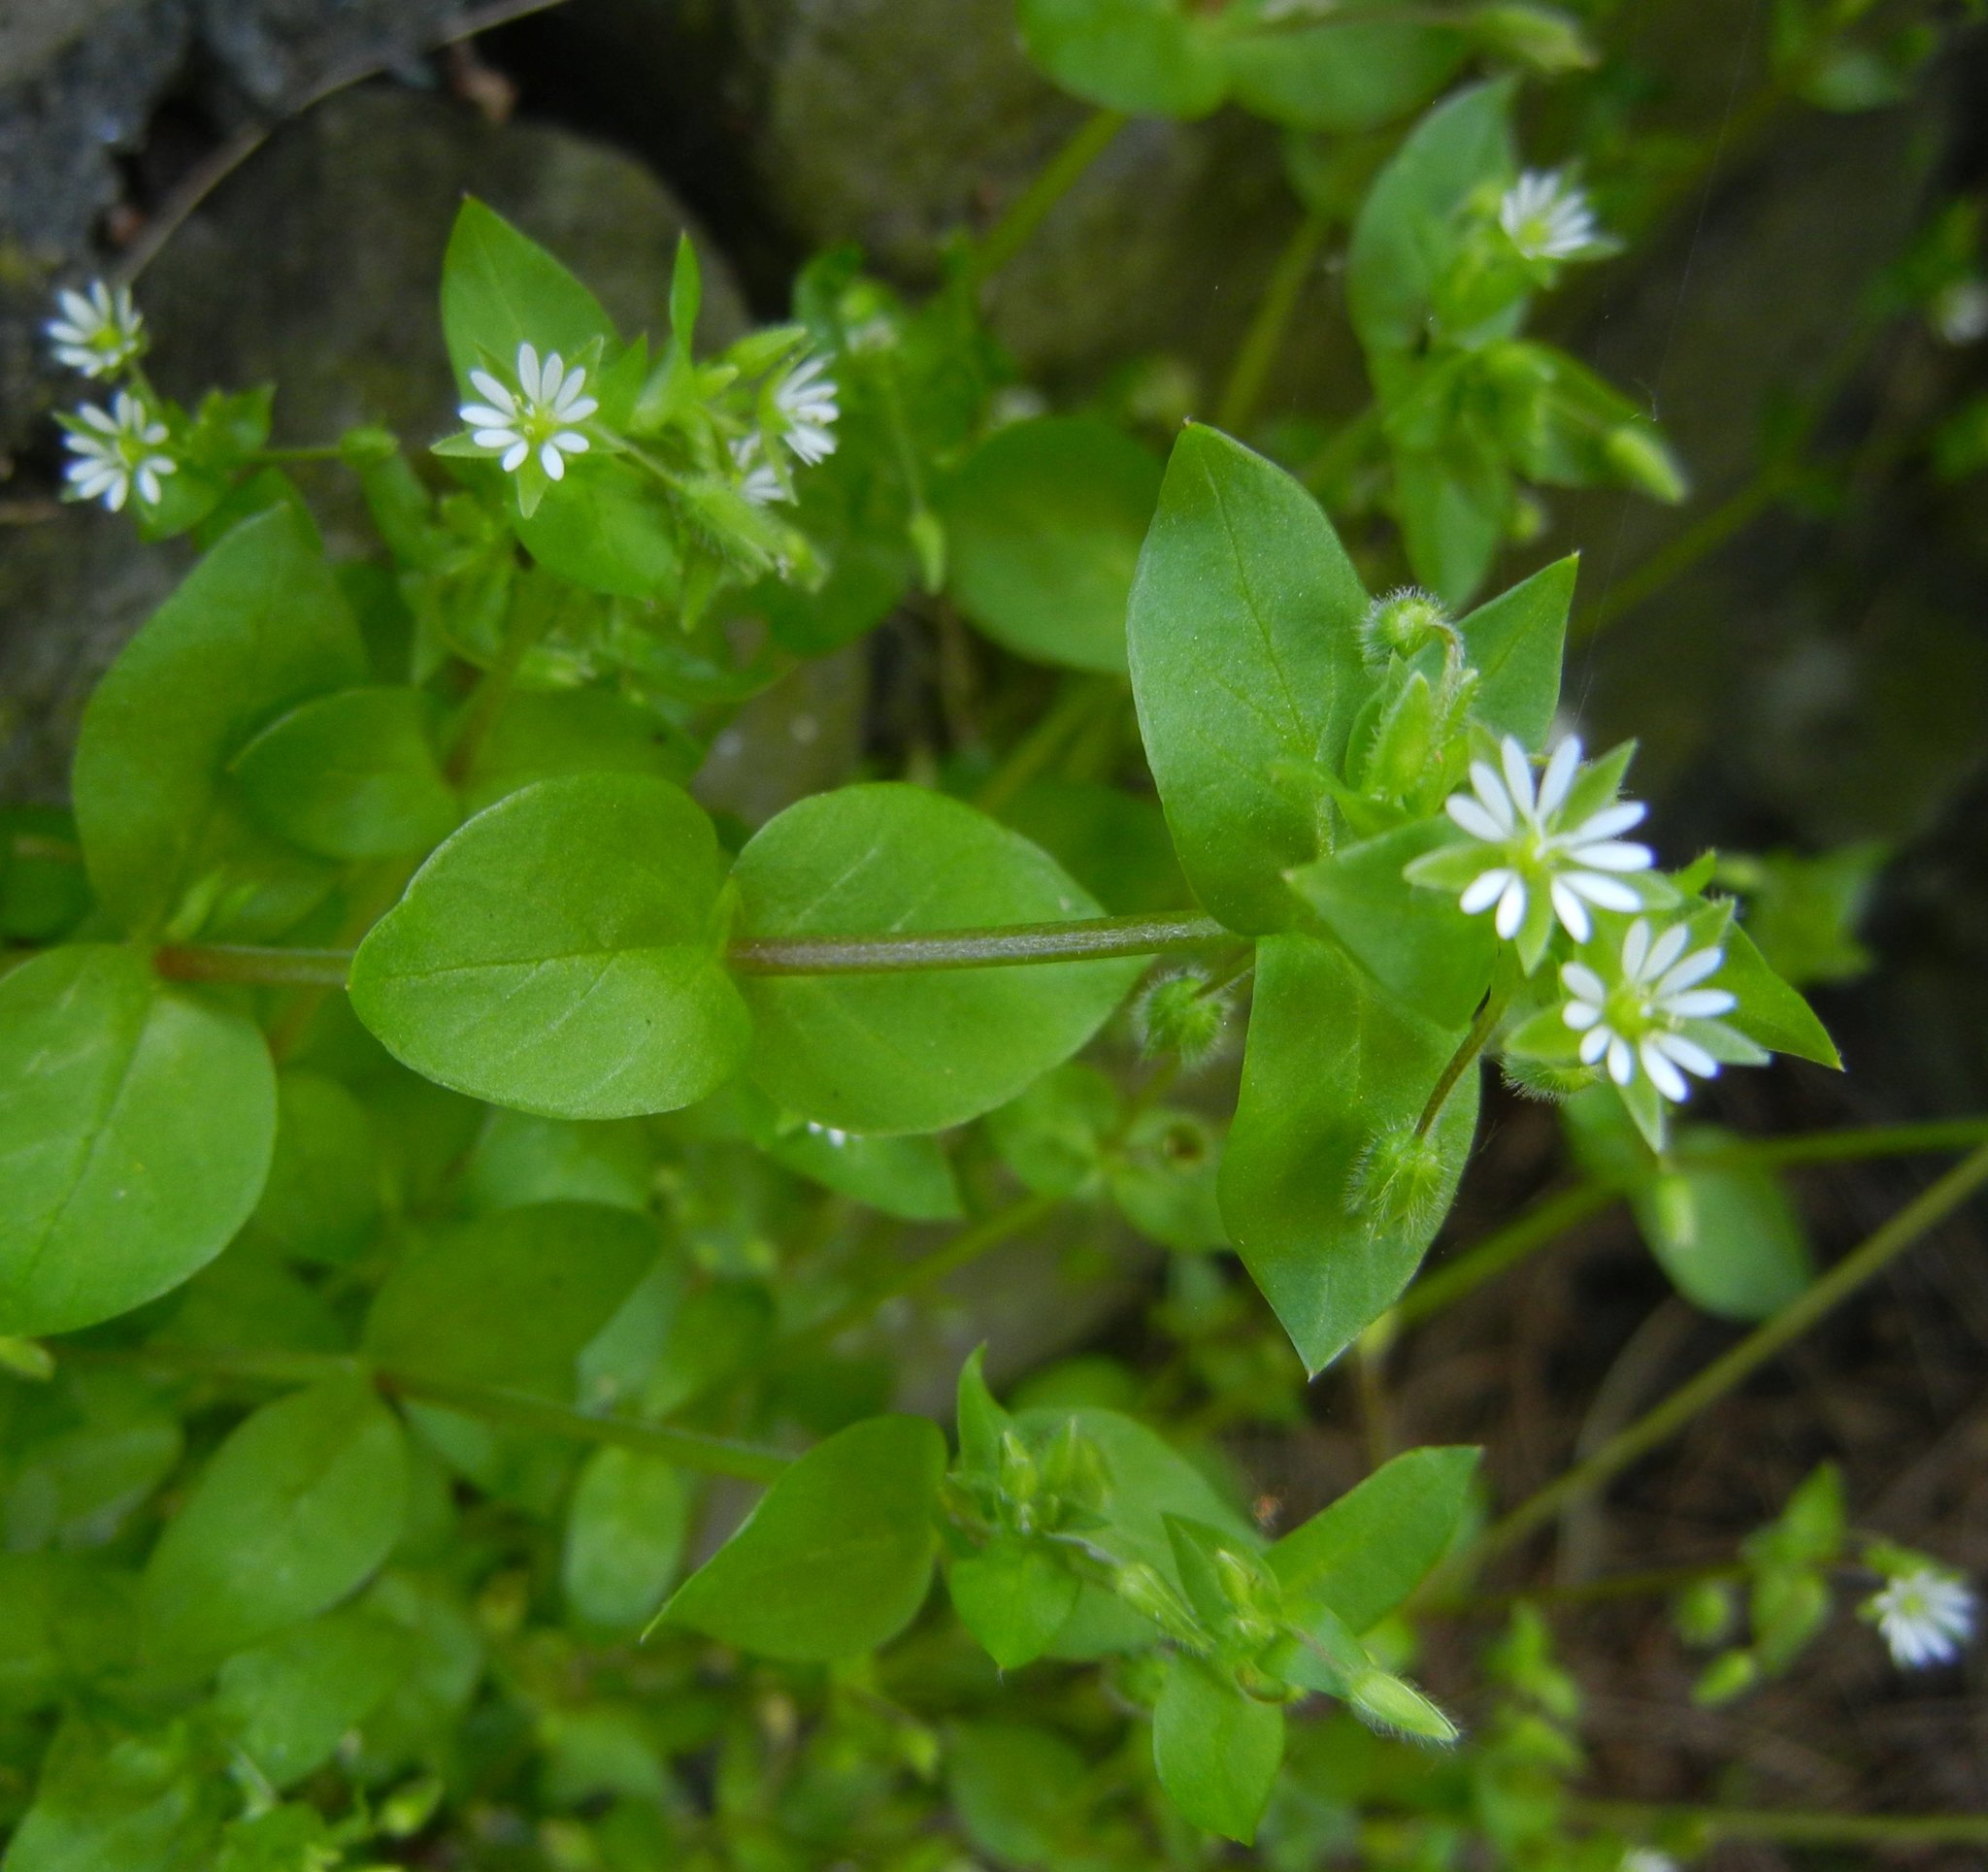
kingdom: Plantae
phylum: Tracheophyta
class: Magnoliopsida
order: Caryophyllales
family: Caryophyllaceae
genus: Stellaria
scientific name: Stellaria media
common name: Common chickweed
